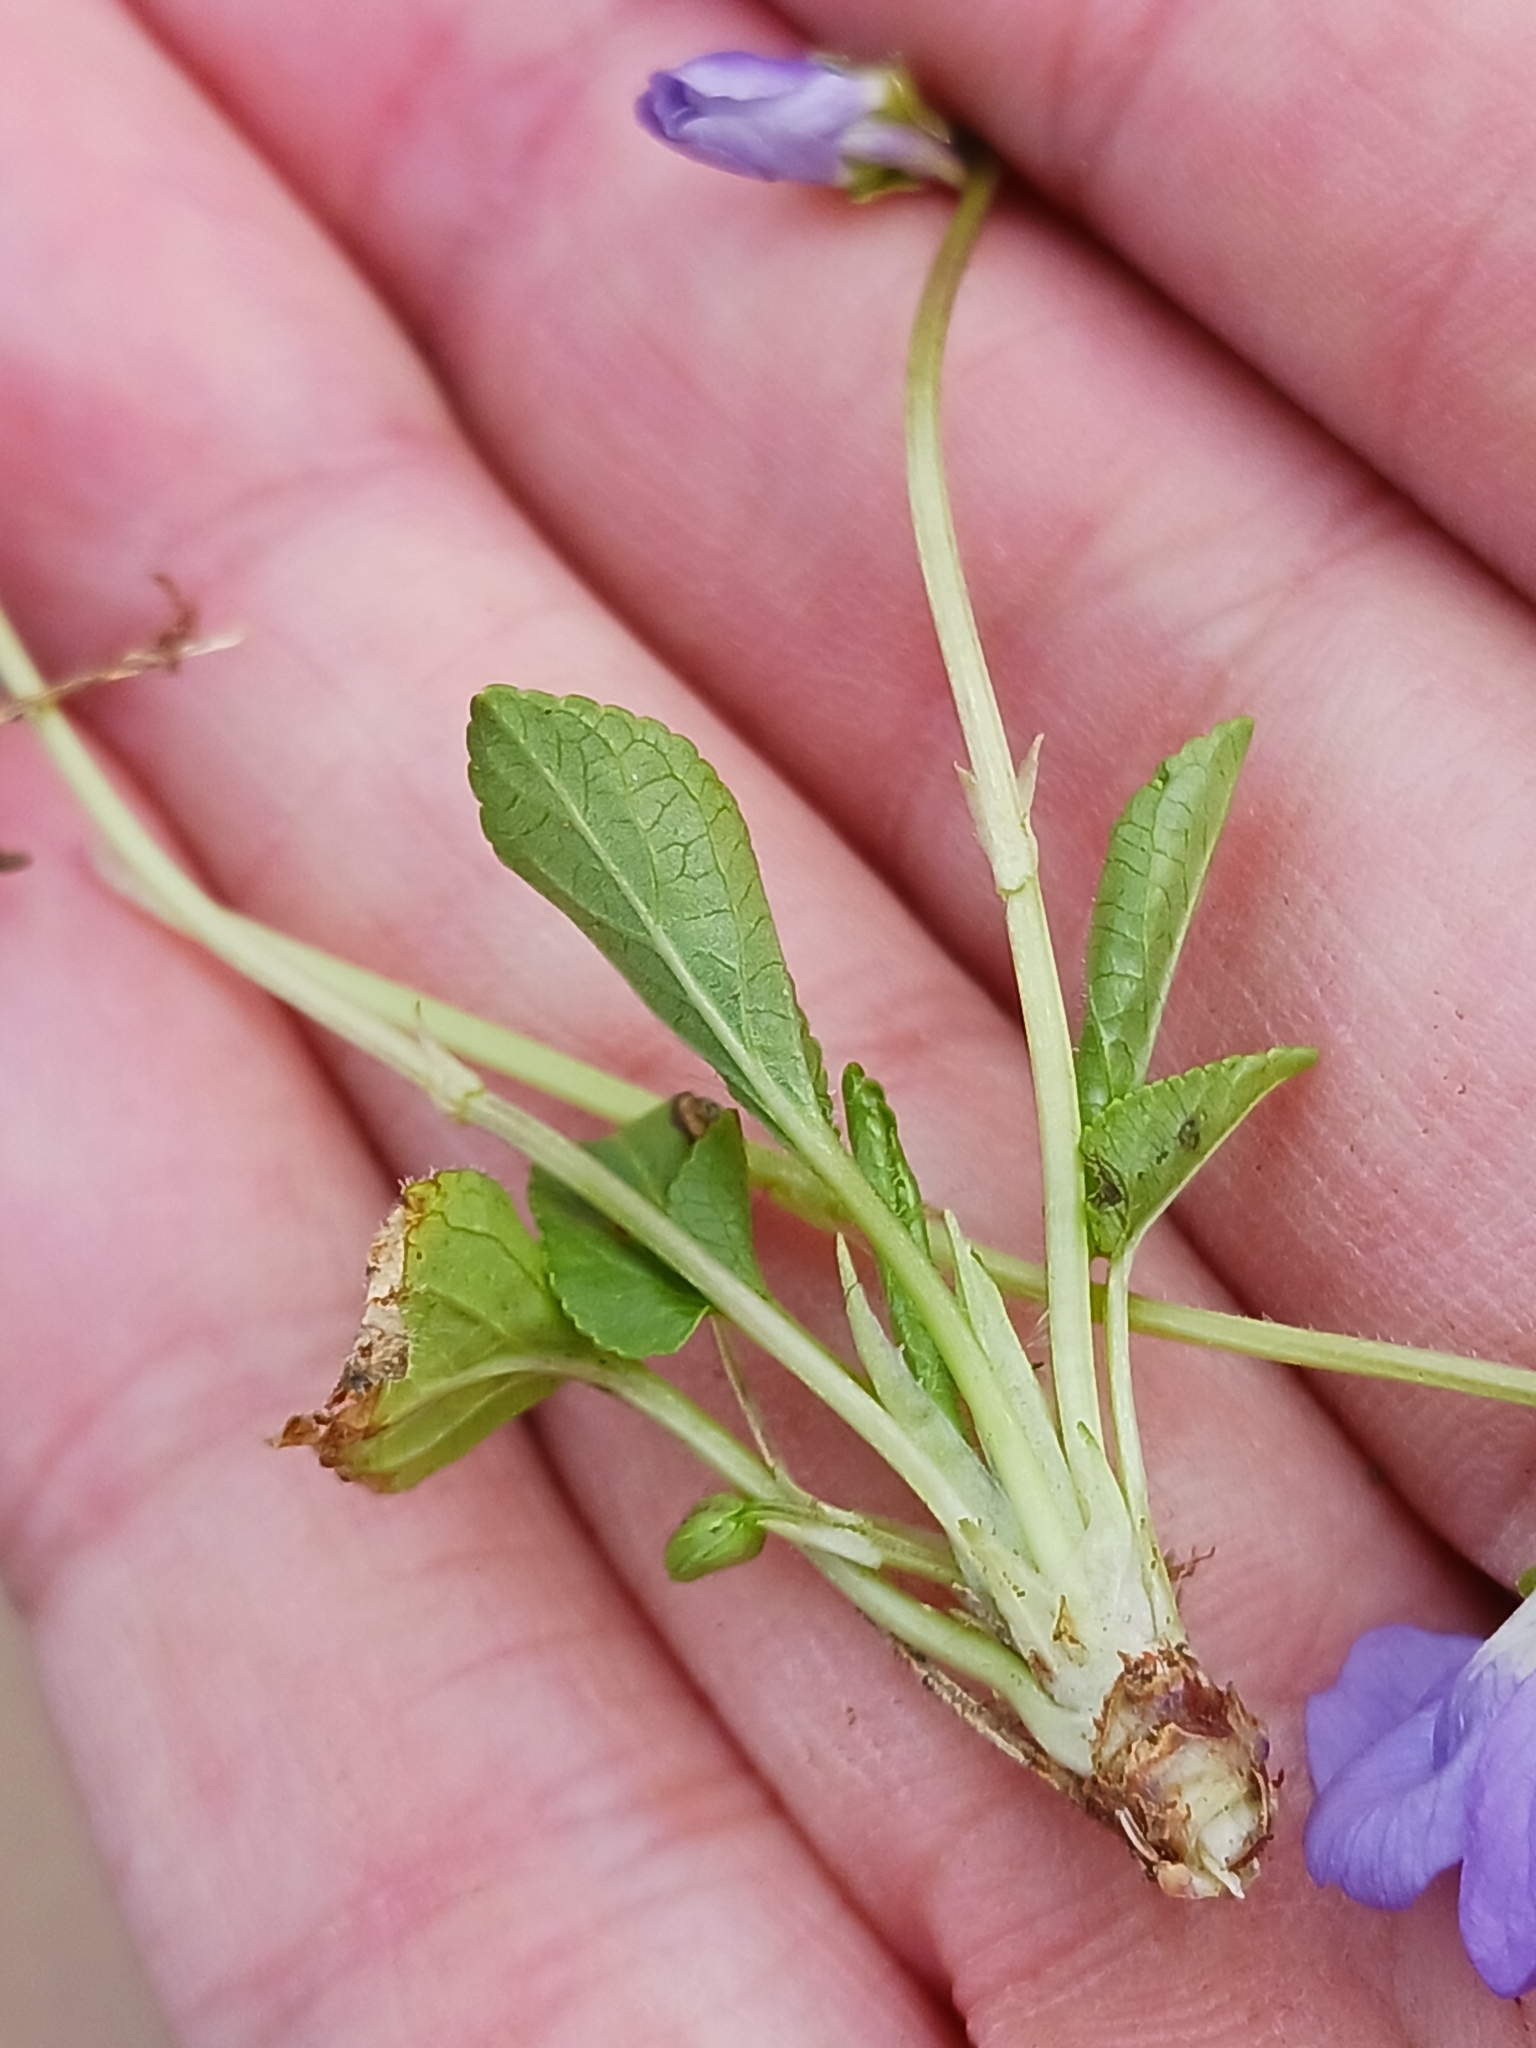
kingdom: Plantae
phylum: Tracheophyta
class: Magnoliopsida
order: Malpighiales
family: Violaceae
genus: Viola
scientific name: Viola hirta
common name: Hairy violet
